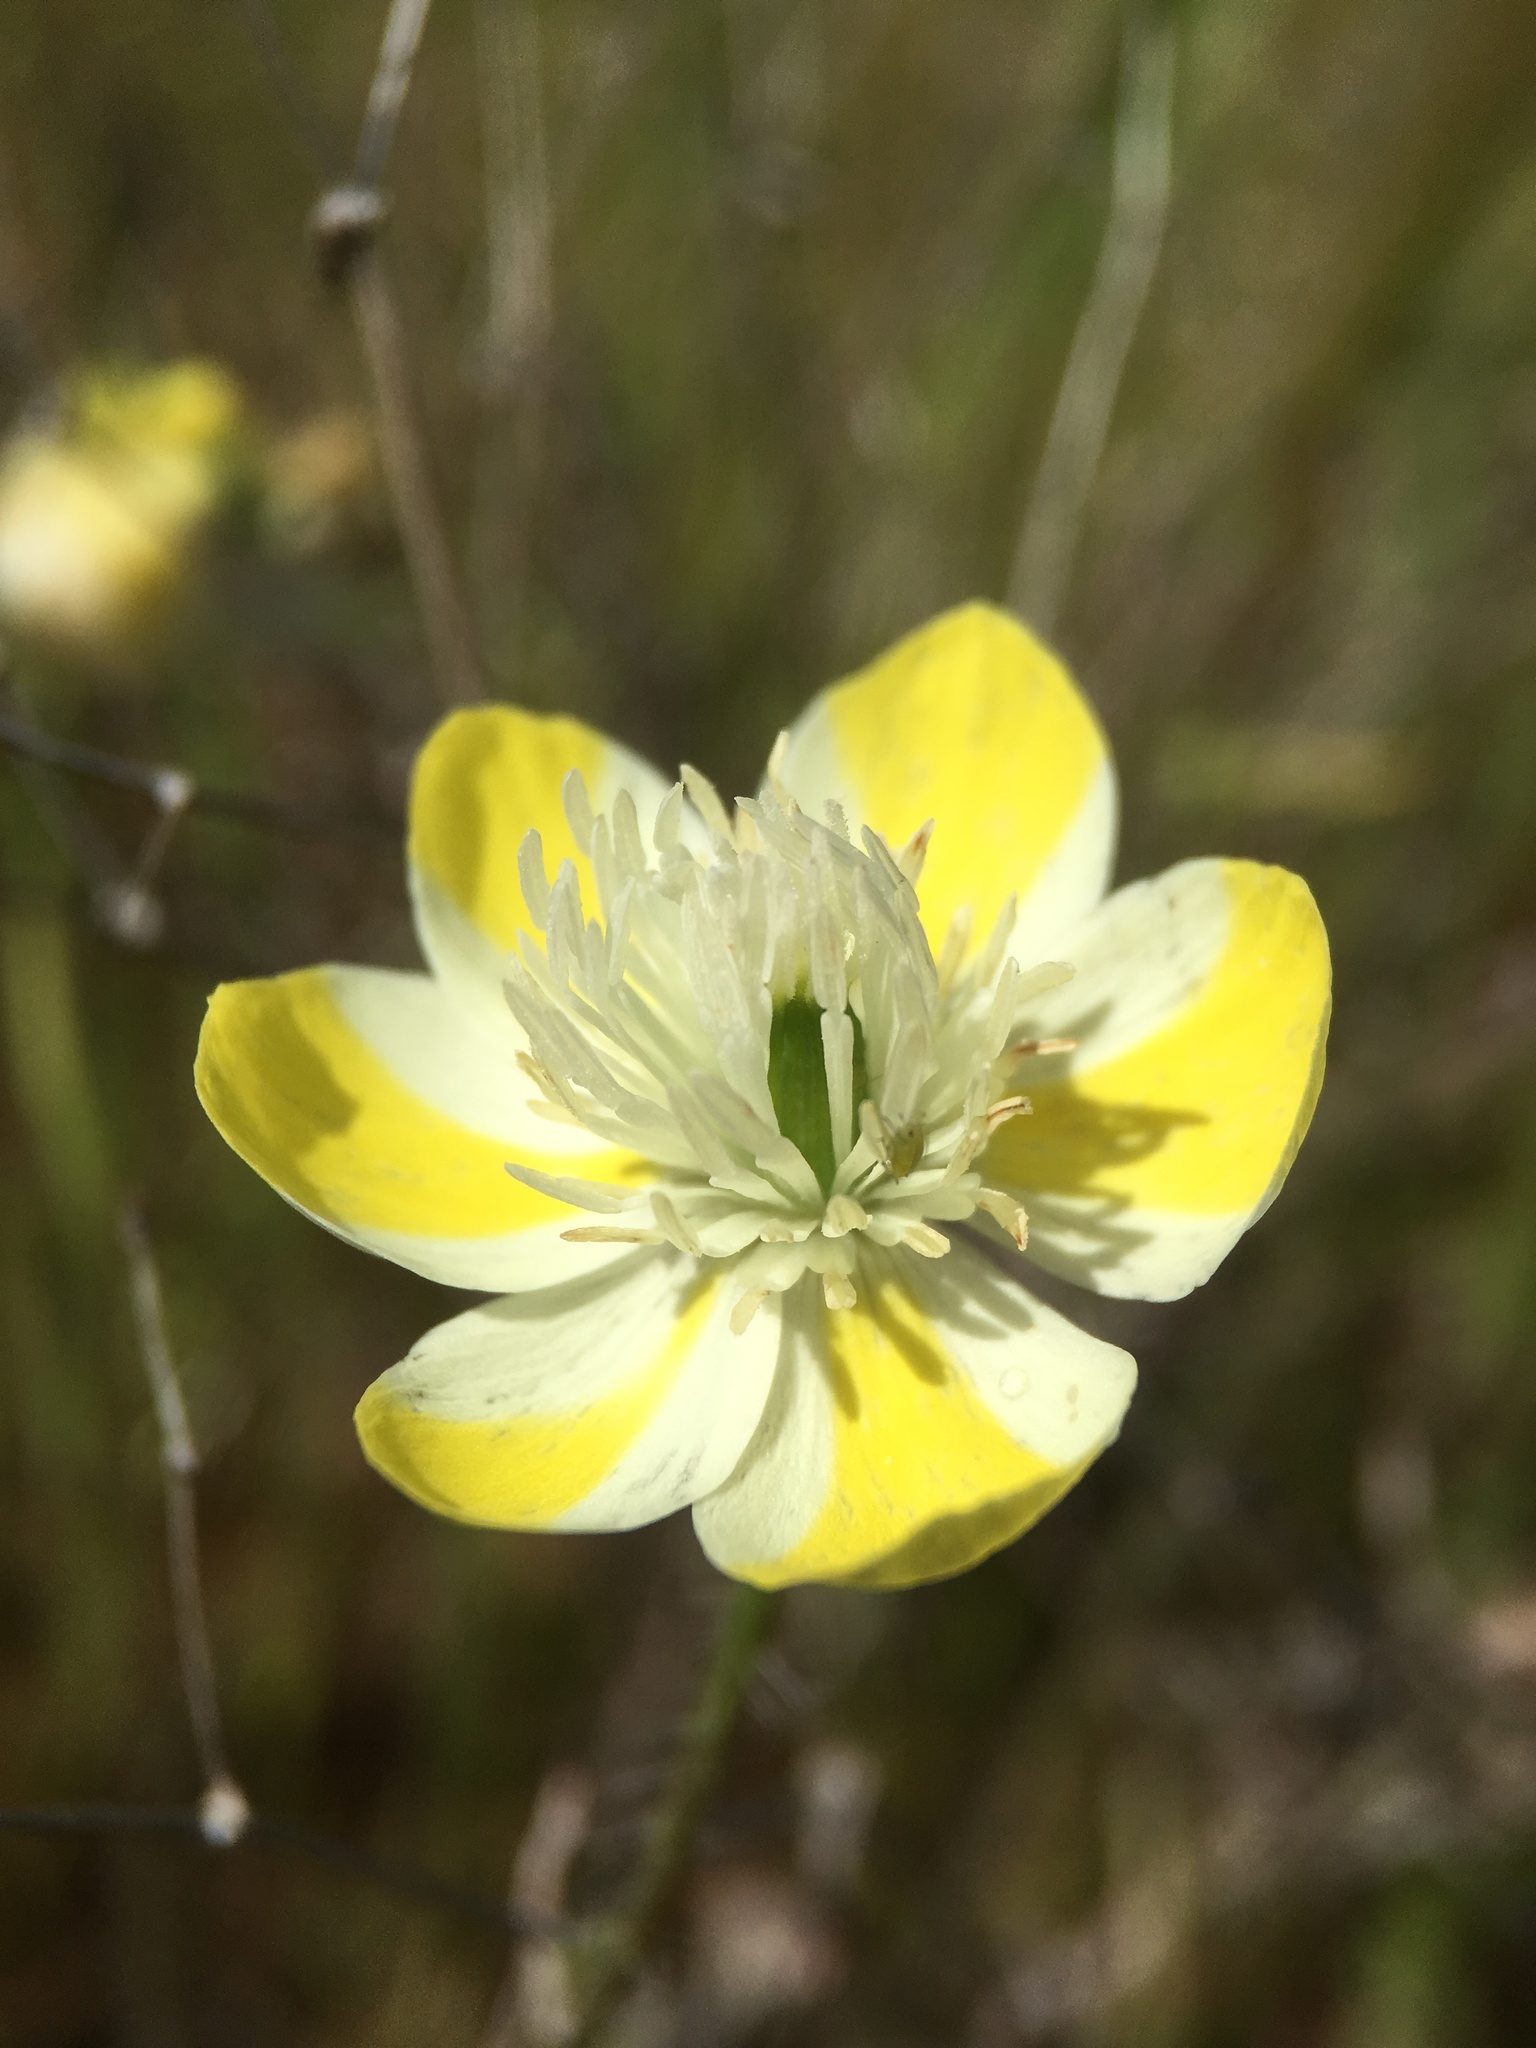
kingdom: Plantae
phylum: Tracheophyta
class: Magnoliopsida
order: Ranunculales
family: Papaveraceae
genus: Platystemon
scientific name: Platystemon californicus
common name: Cream-cups
